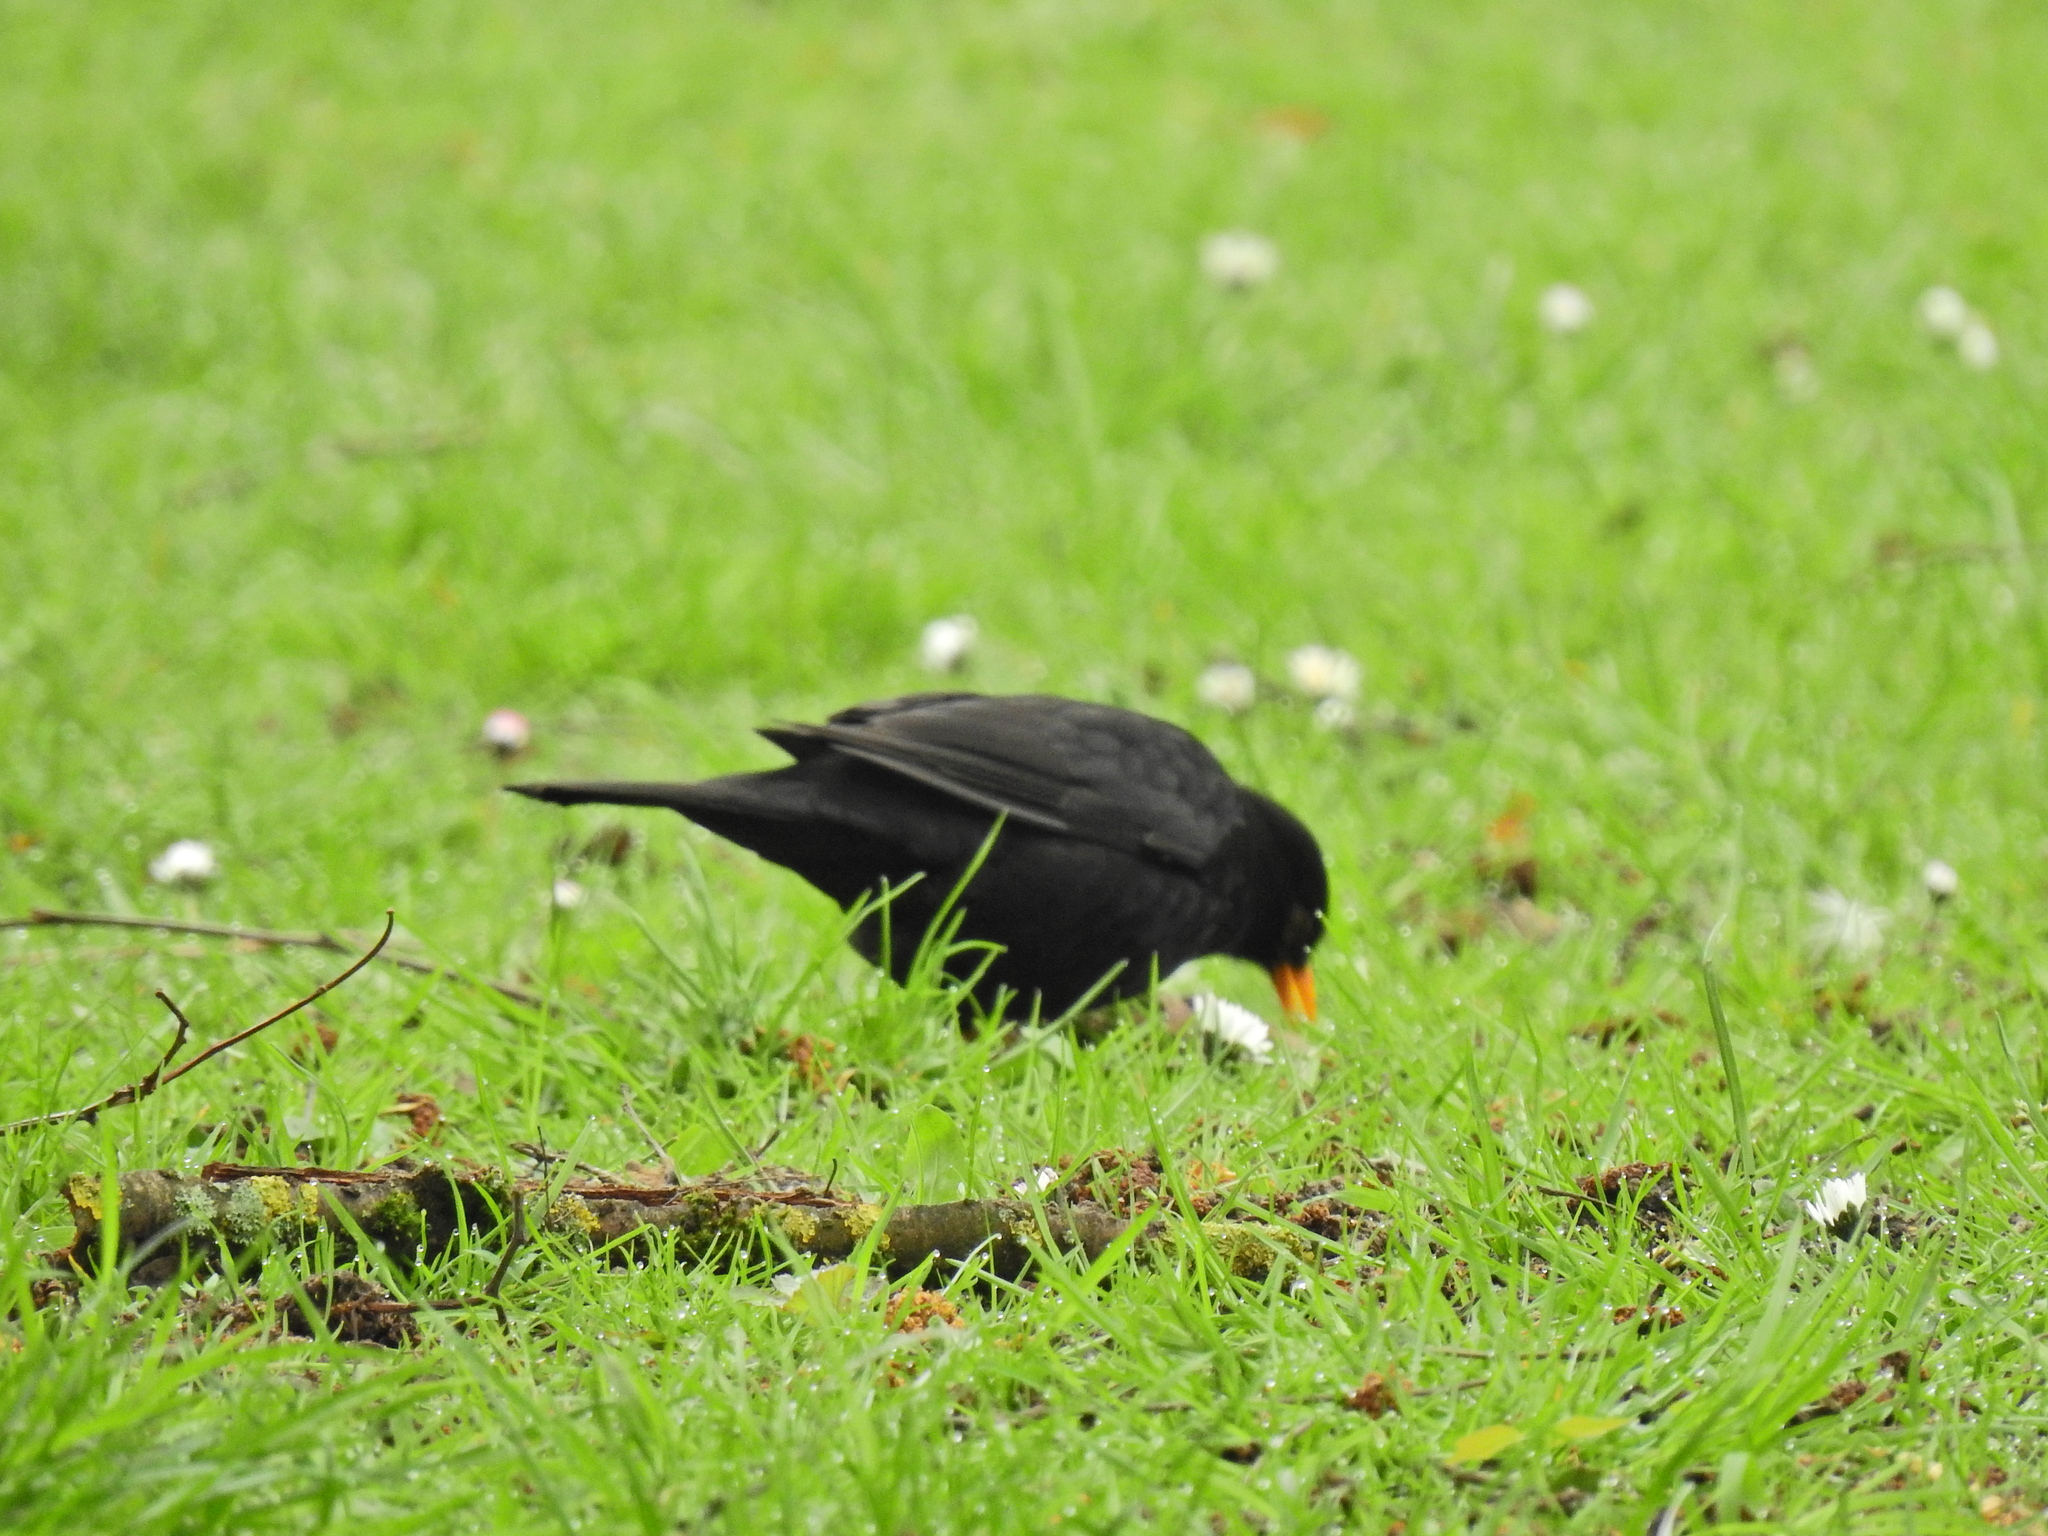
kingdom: Animalia
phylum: Chordata
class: Aves
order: Passeriformes
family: Turdidae
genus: Turdus
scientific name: Turdus merula
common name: Common blackbird
